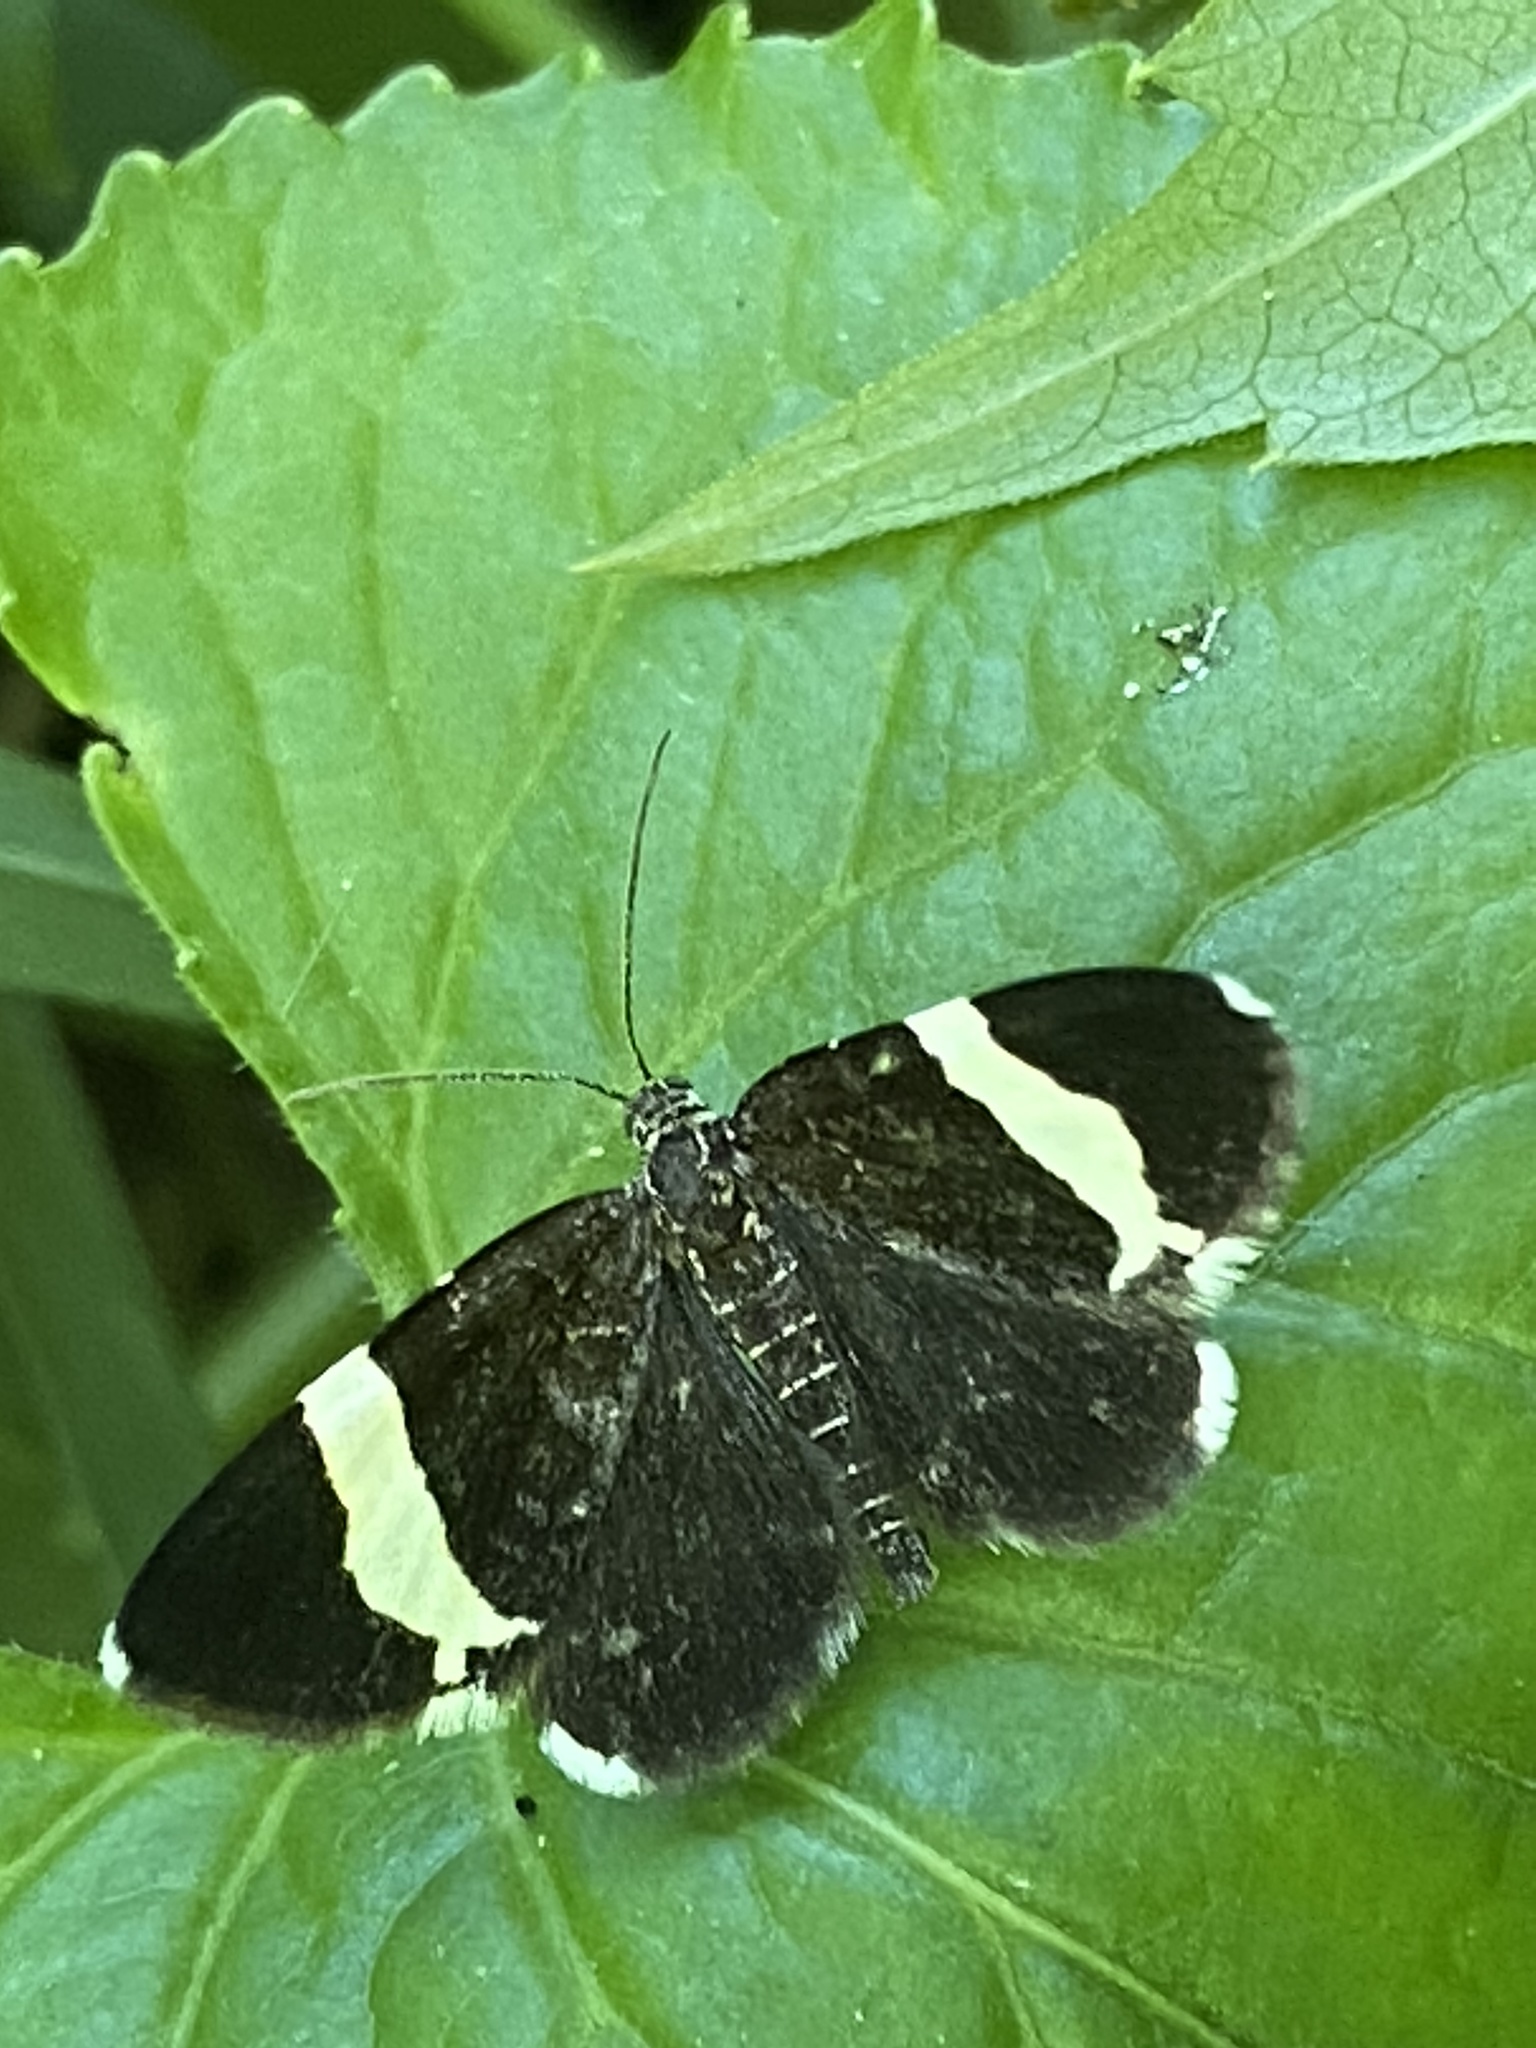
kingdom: Animalia
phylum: Arthropoda
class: Insecta
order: Lepidoptera
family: Geometridae
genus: Trichodezia
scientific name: Trichodezia albovittata
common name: White striped black
